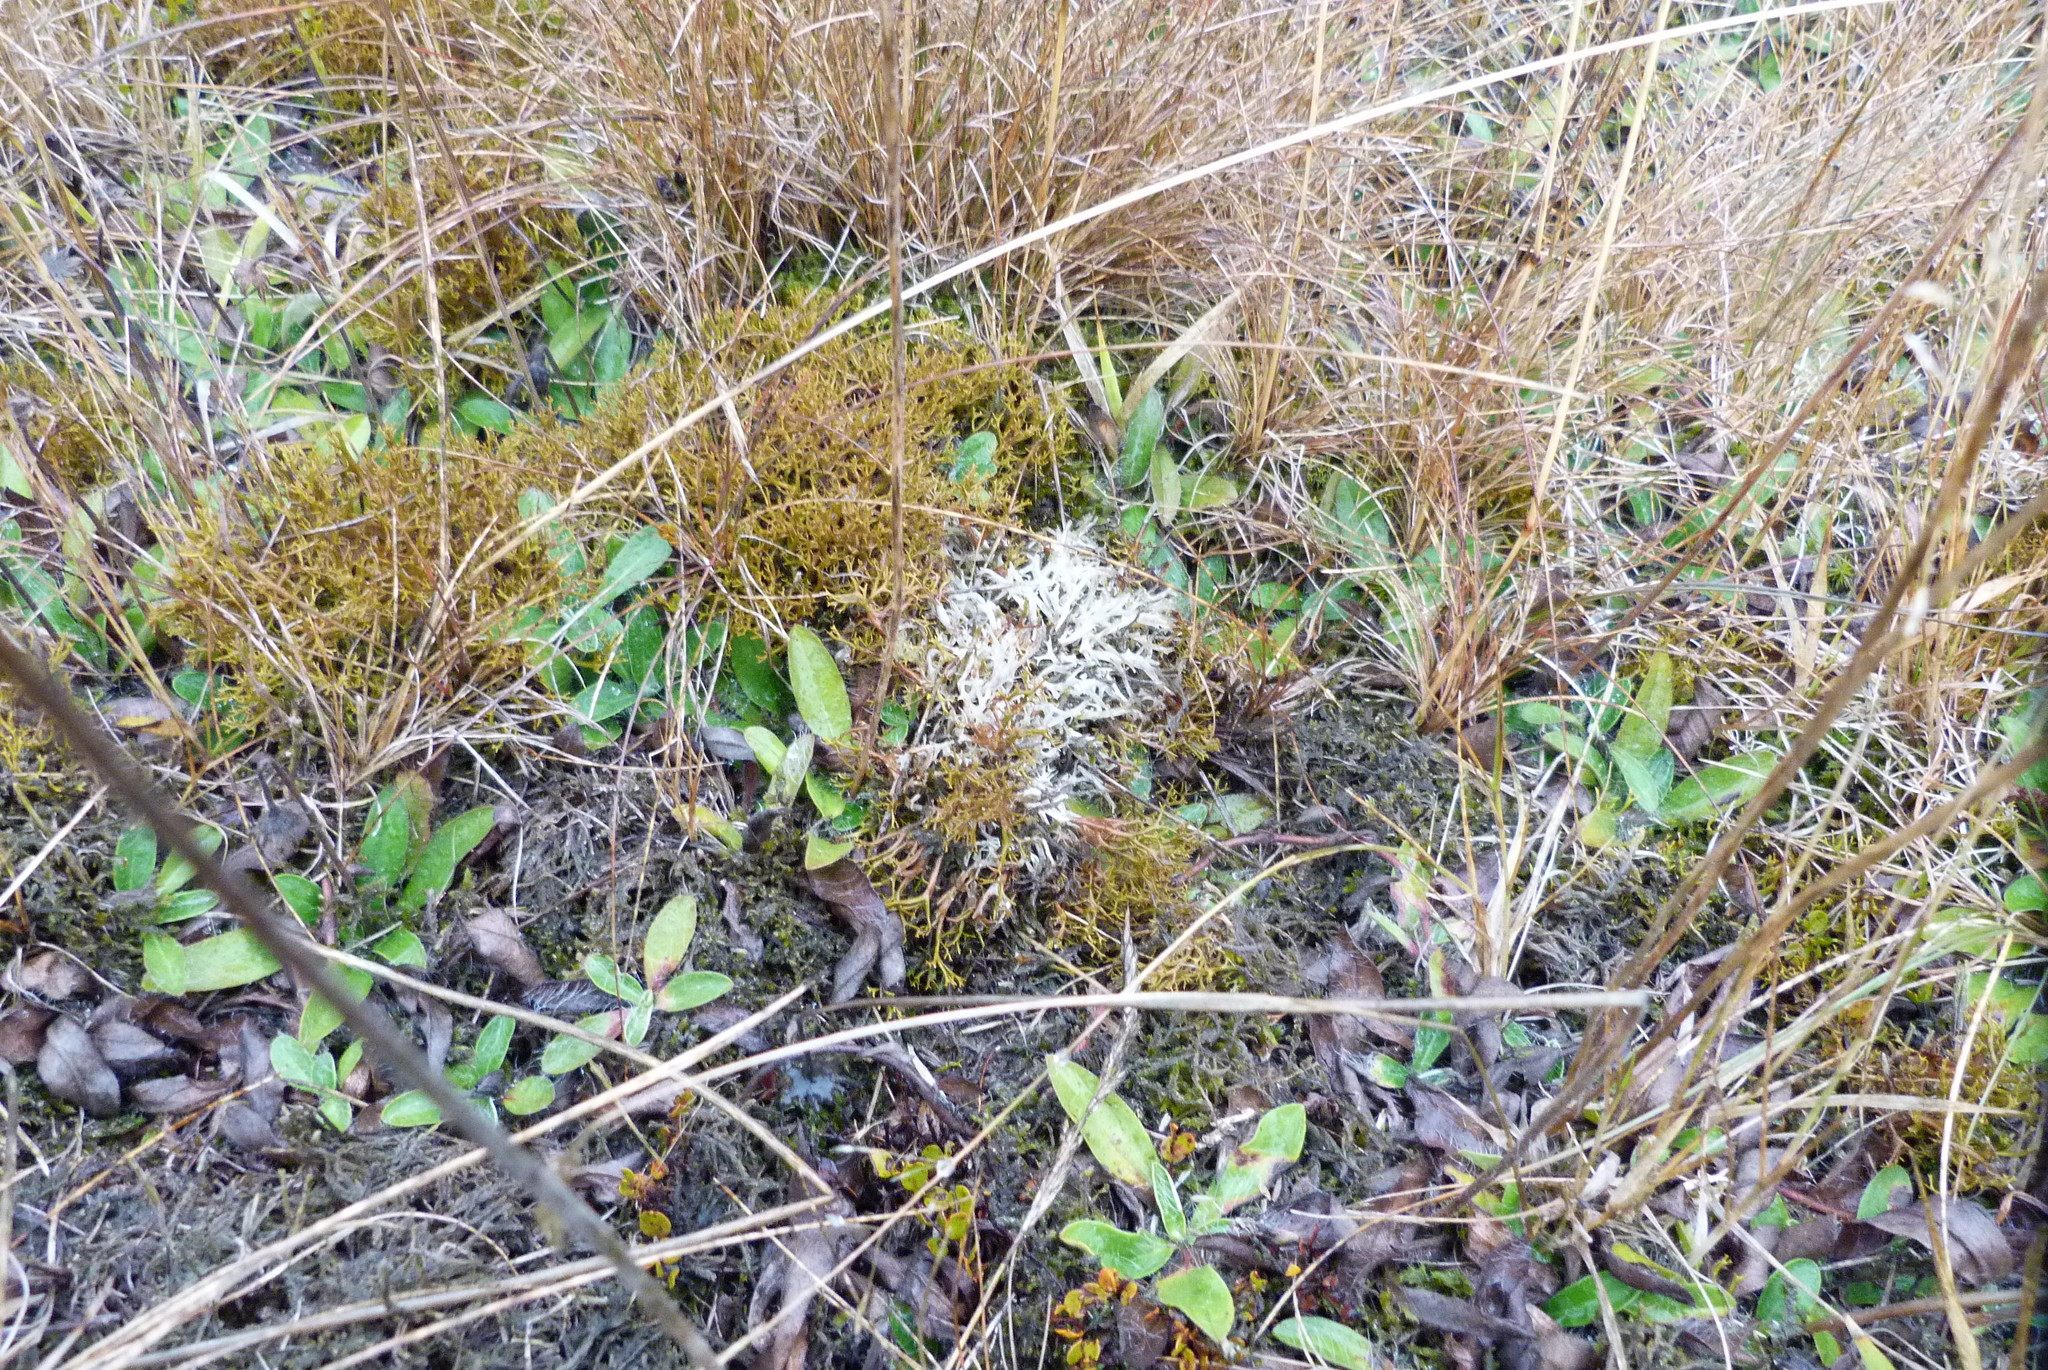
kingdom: Plantae
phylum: Tracheophyta
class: Magnoliopsida
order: Caryophyllales
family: Polygonaceae
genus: Muehlenbeckia
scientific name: Muehlenbeckia axillaris
